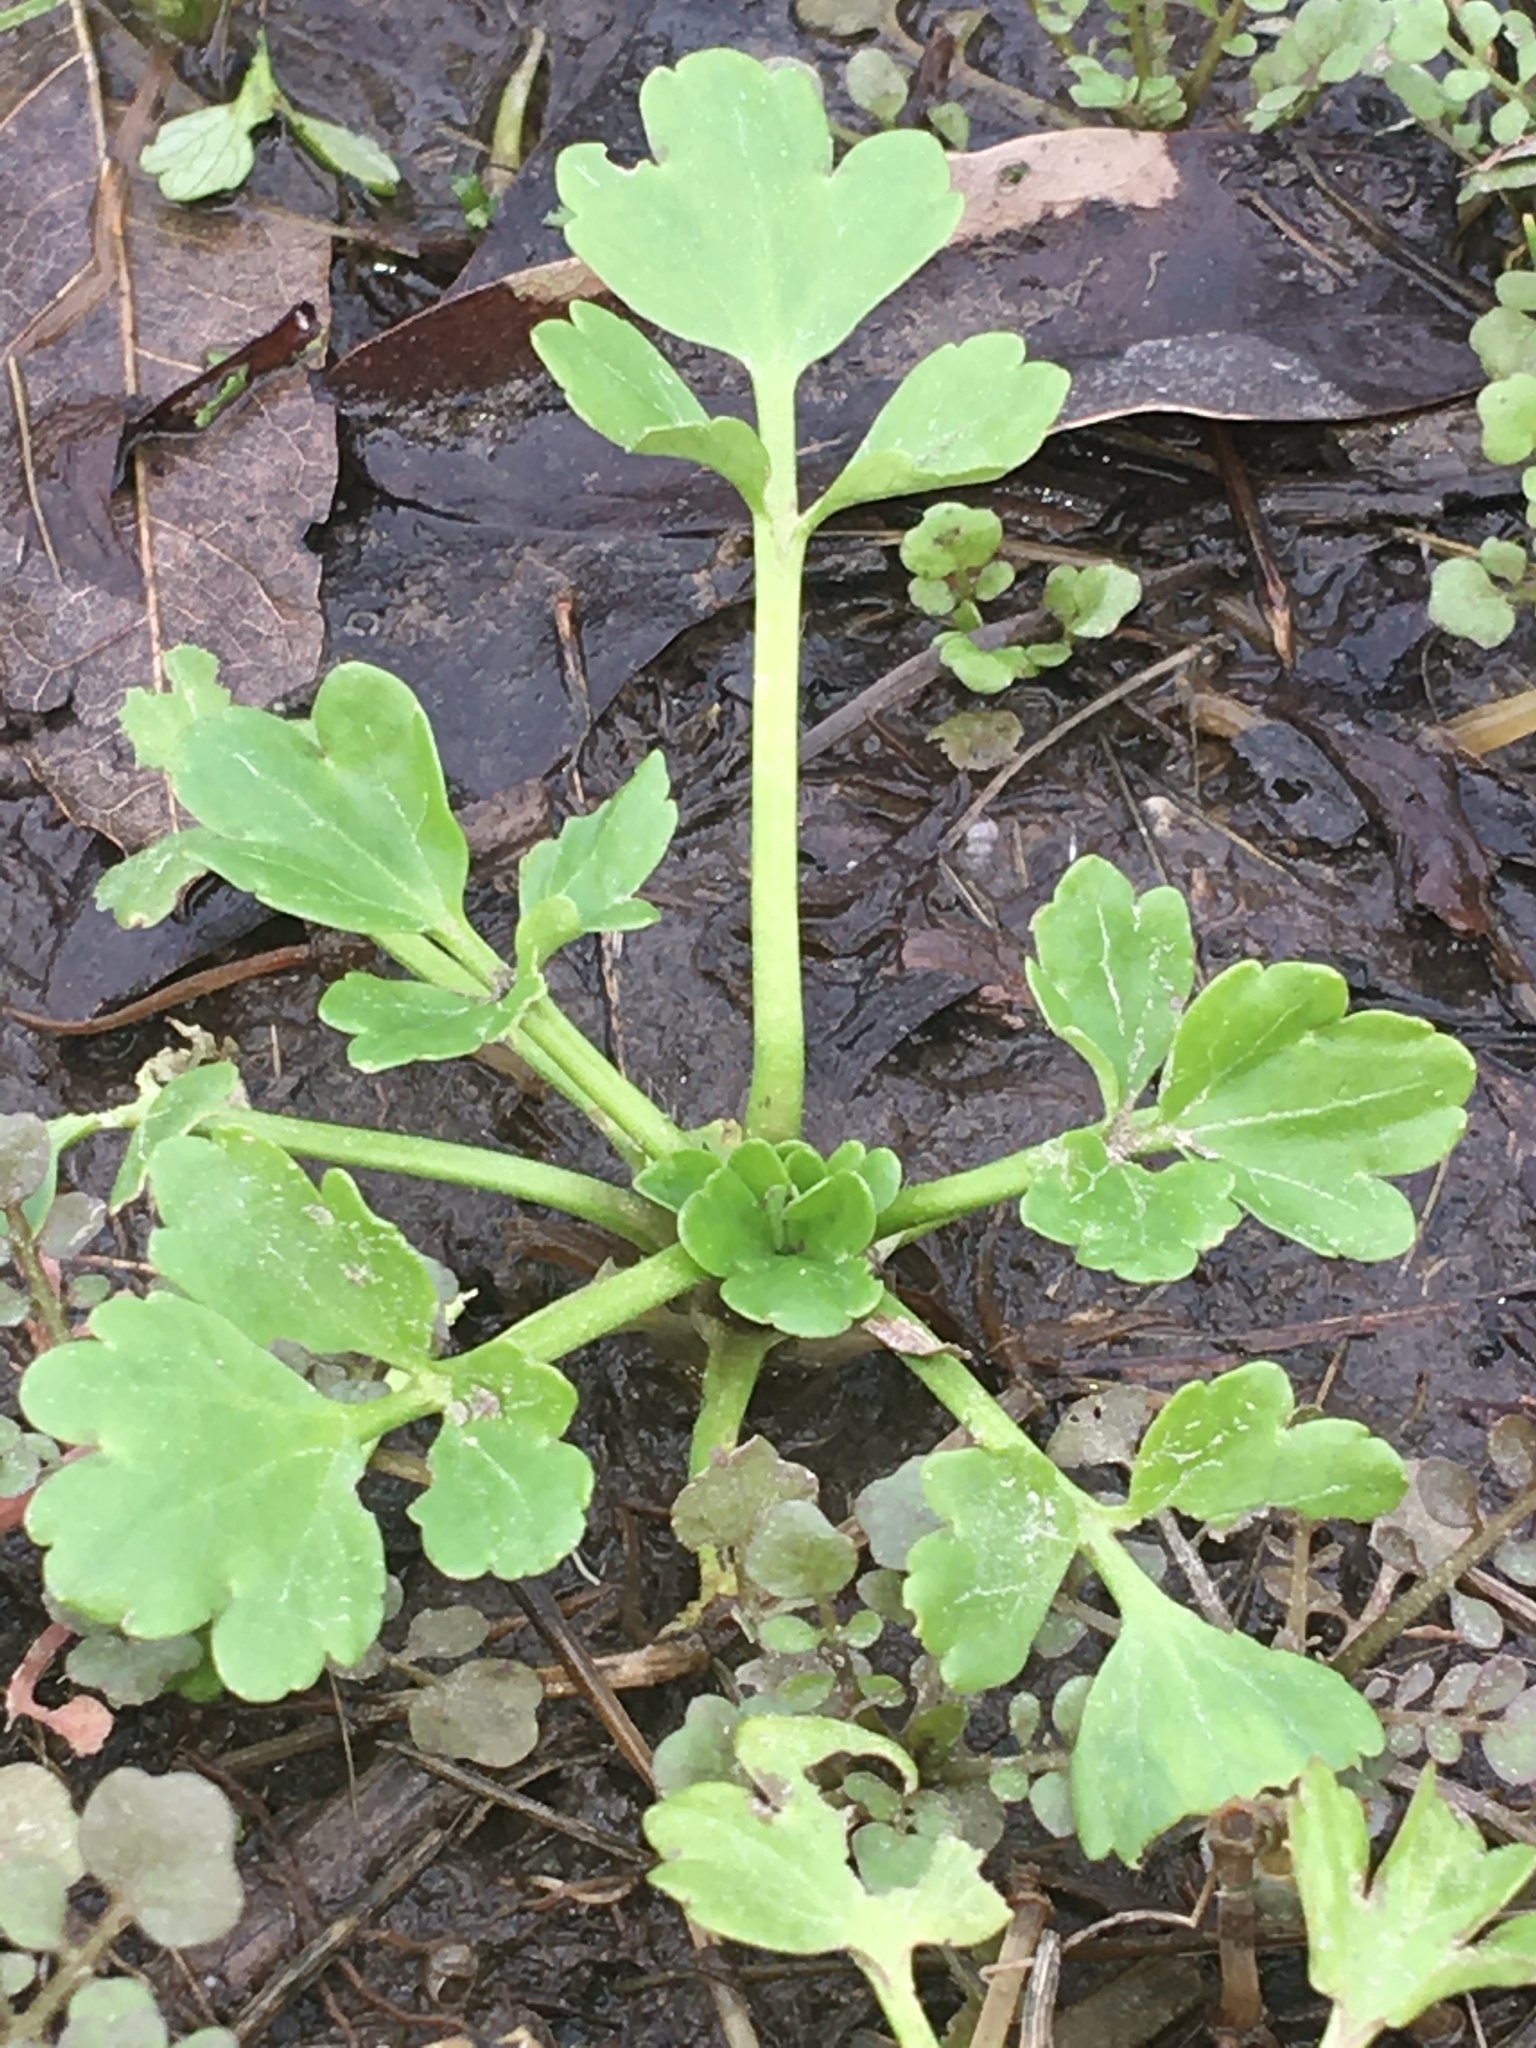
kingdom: Plantae
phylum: Tracheophyta
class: Magnoliopsida
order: Ranunculales
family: Ranunculaceae
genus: Ranunculus
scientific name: Ranunculus sardous
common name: Hairy buttercup
